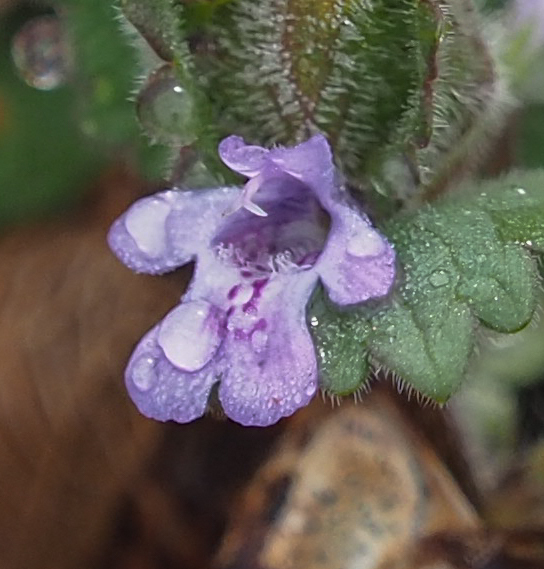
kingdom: Plantae
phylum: Tracheophyta
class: Magnoliopsida
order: Lamiales
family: Lamiaceae
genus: Glechoma
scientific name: Glechoma hederacea
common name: Ground ivy
